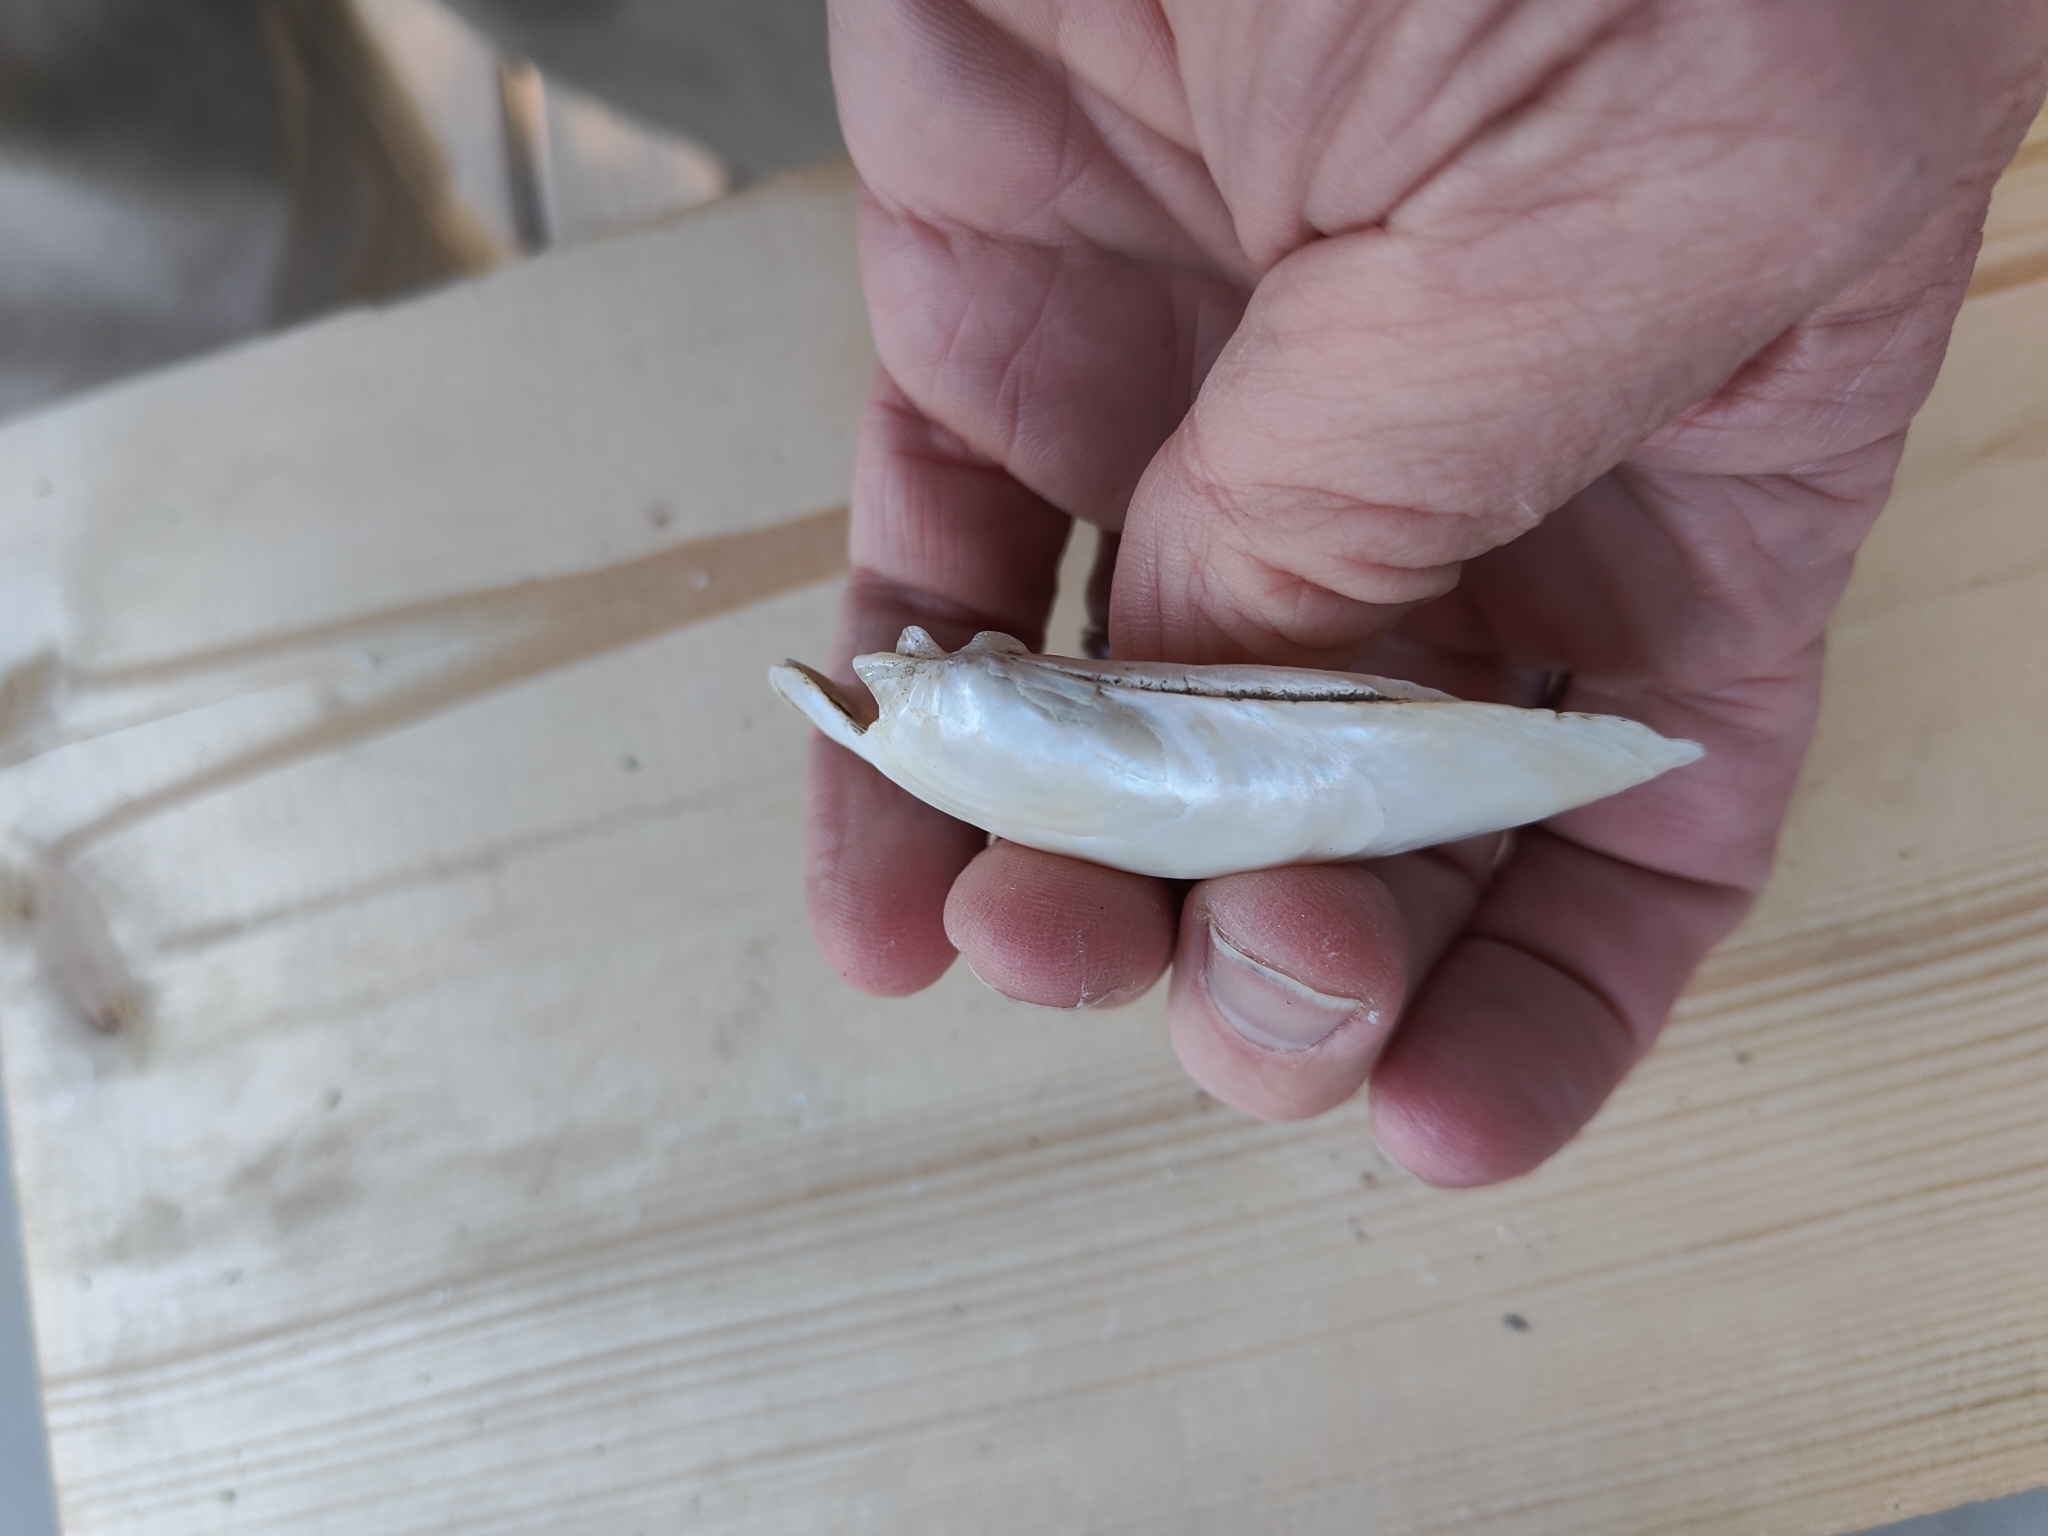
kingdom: Animalia
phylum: Mollusca
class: Bivalvia
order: Unionida
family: Unionidae
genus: Lampsilis
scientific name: Lampsilis siliquoidea
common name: Fatmucket
